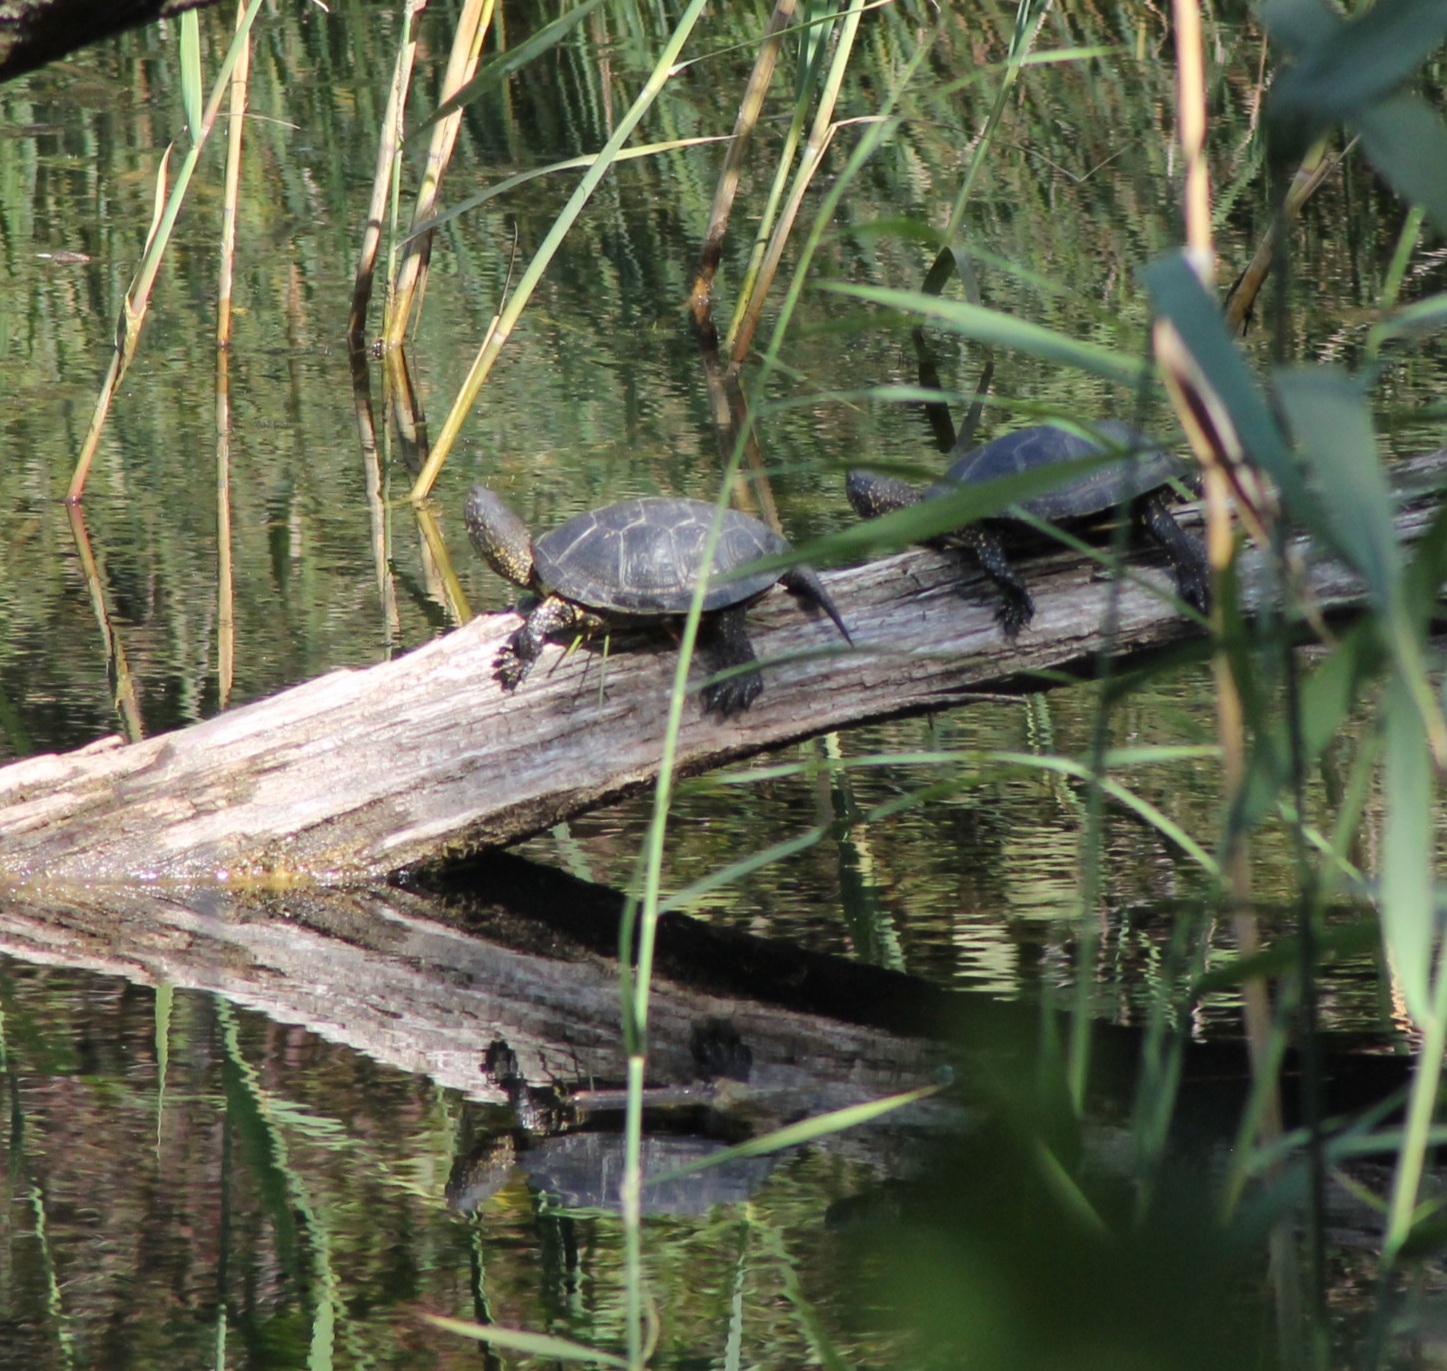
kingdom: Animalia
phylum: Chordata
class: Testudines
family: Emydidae
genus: Emys
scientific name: Emys orbicularis
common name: European pond turtle
